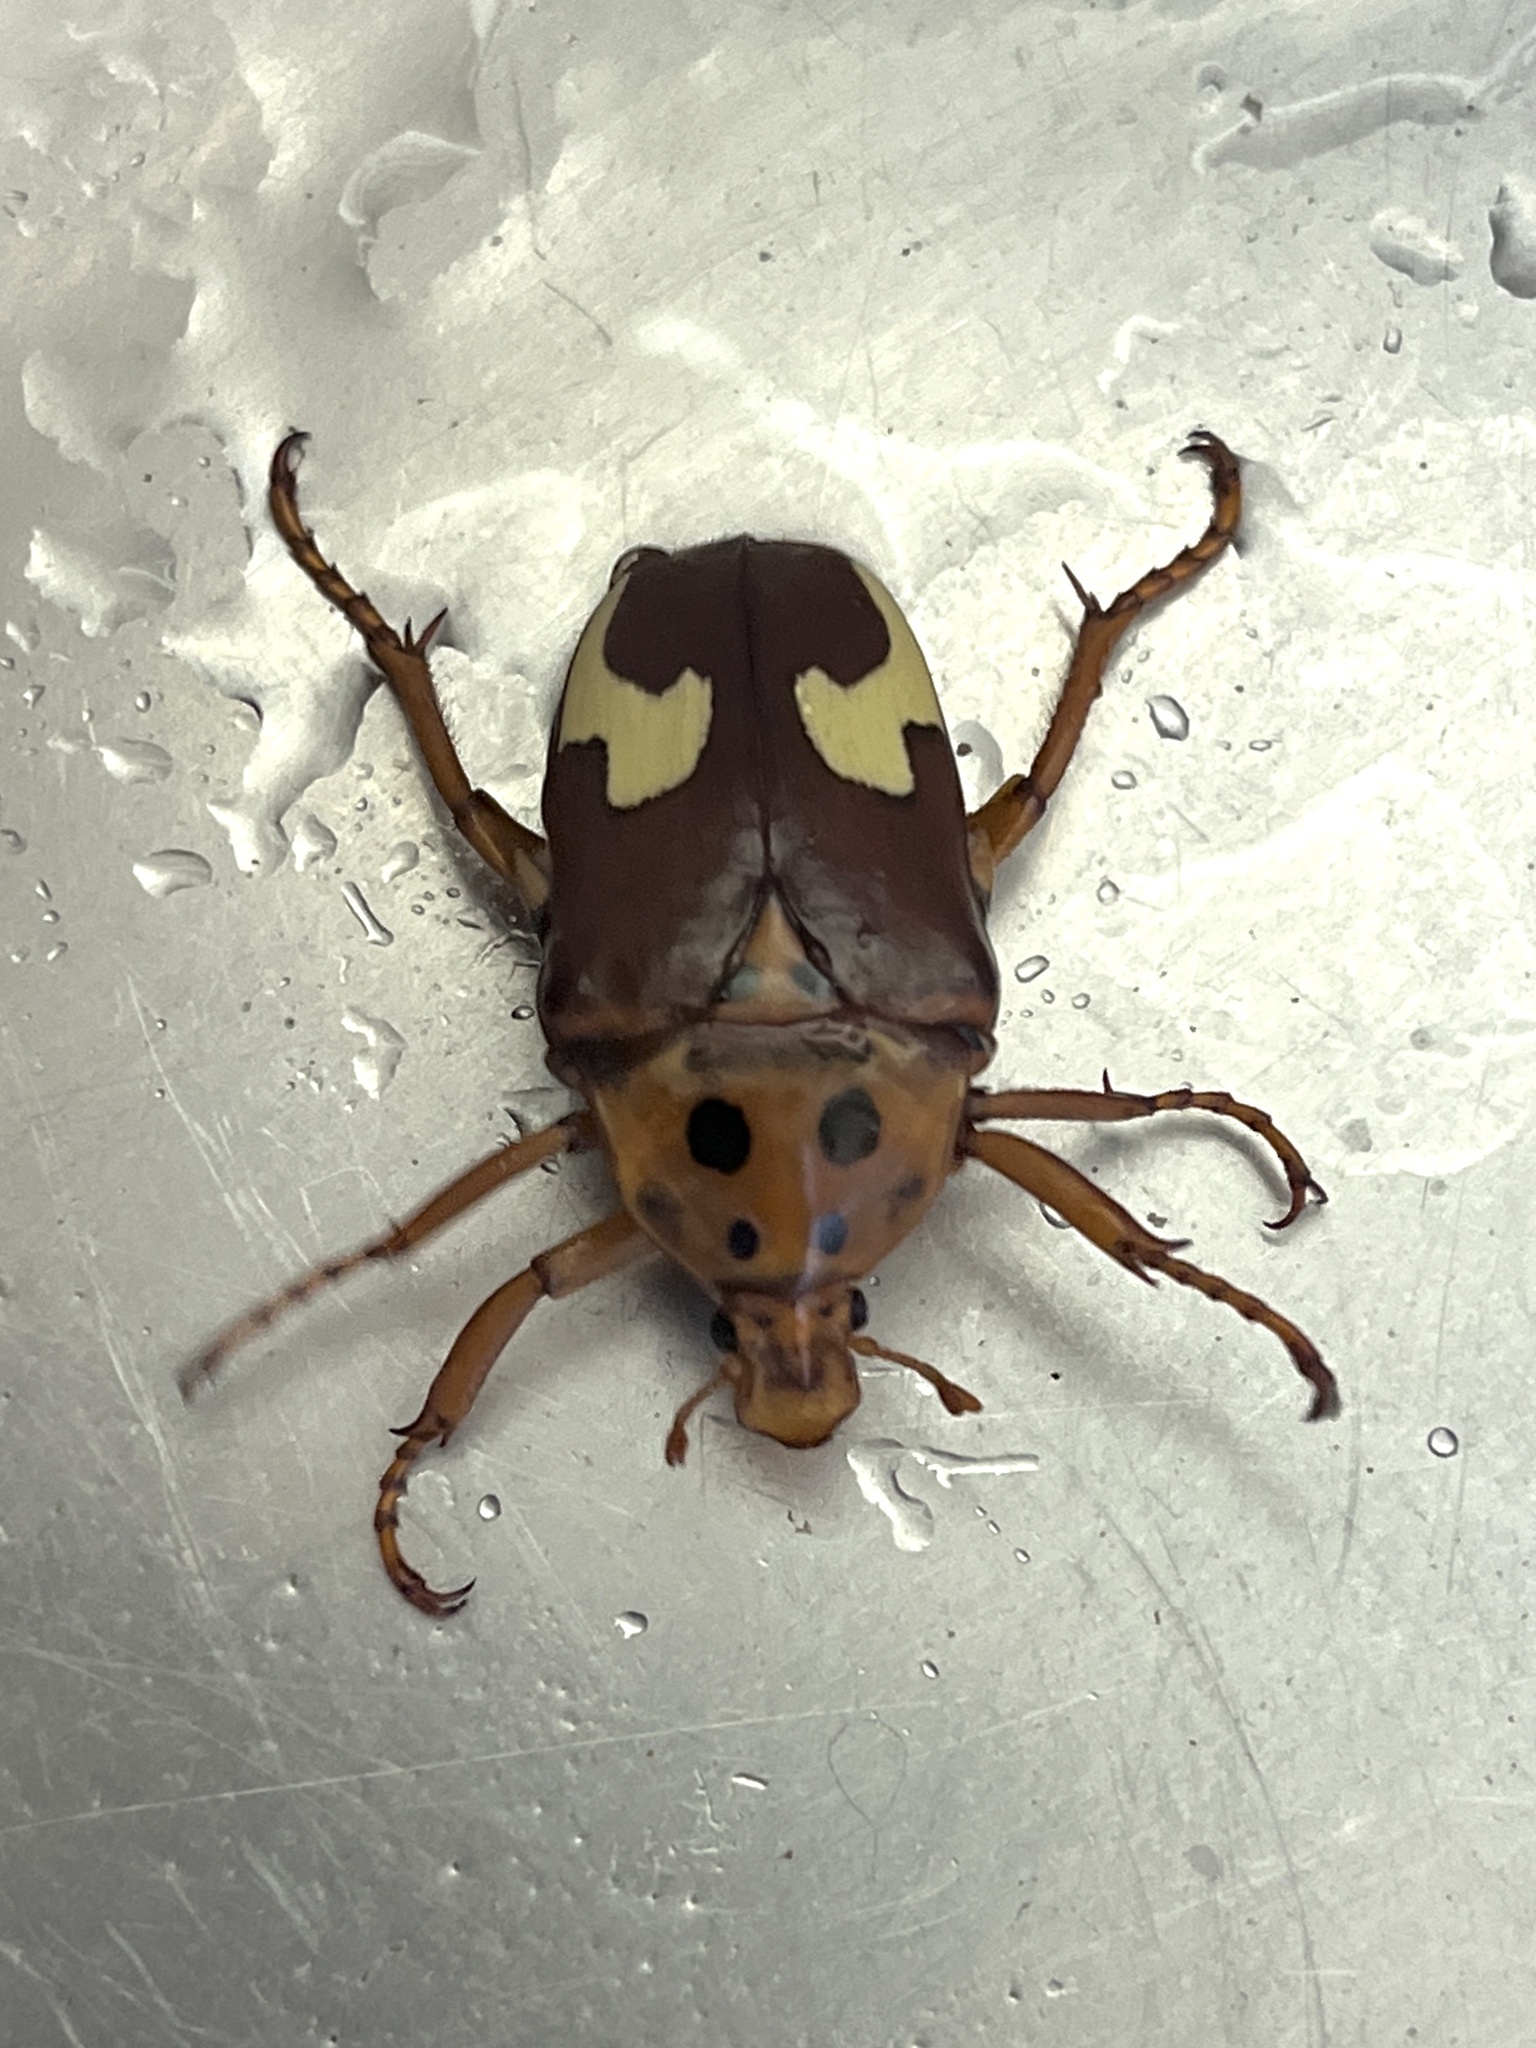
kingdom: Animalia
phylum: Arthropoda
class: Insecta
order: Coleoptera
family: Scarabaeidae
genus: Anisorrhina
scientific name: Anisorrhina flavomaculata
